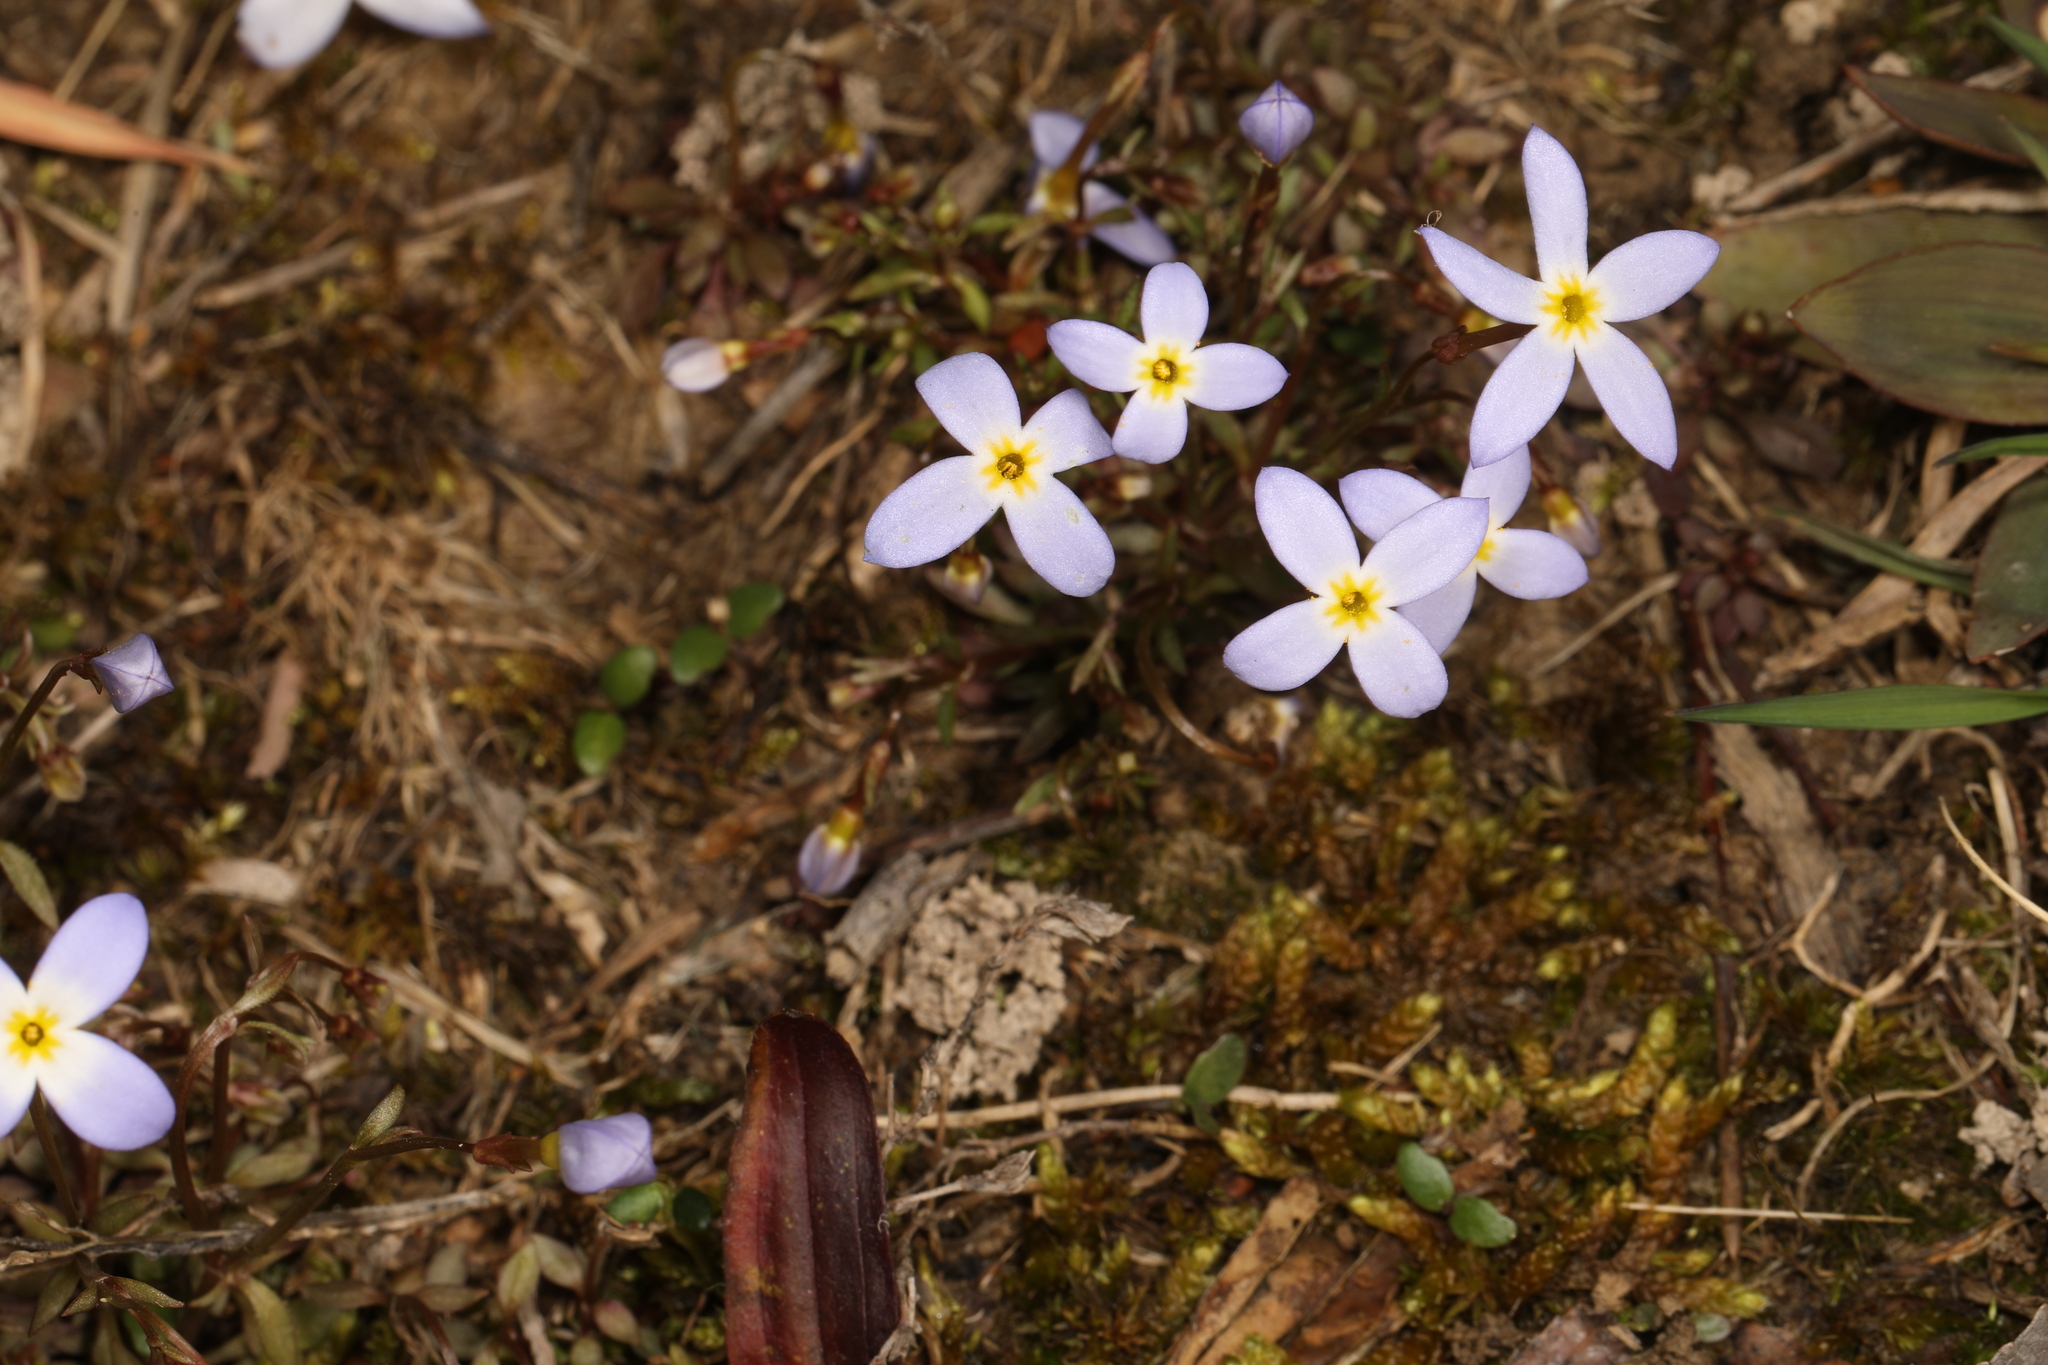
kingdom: Plantae
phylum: Tracheophyta
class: Magnoliopsida
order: Gentianales
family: Rubiaceae
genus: Houstonia
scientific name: Houstonia caerulea
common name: Bluets
